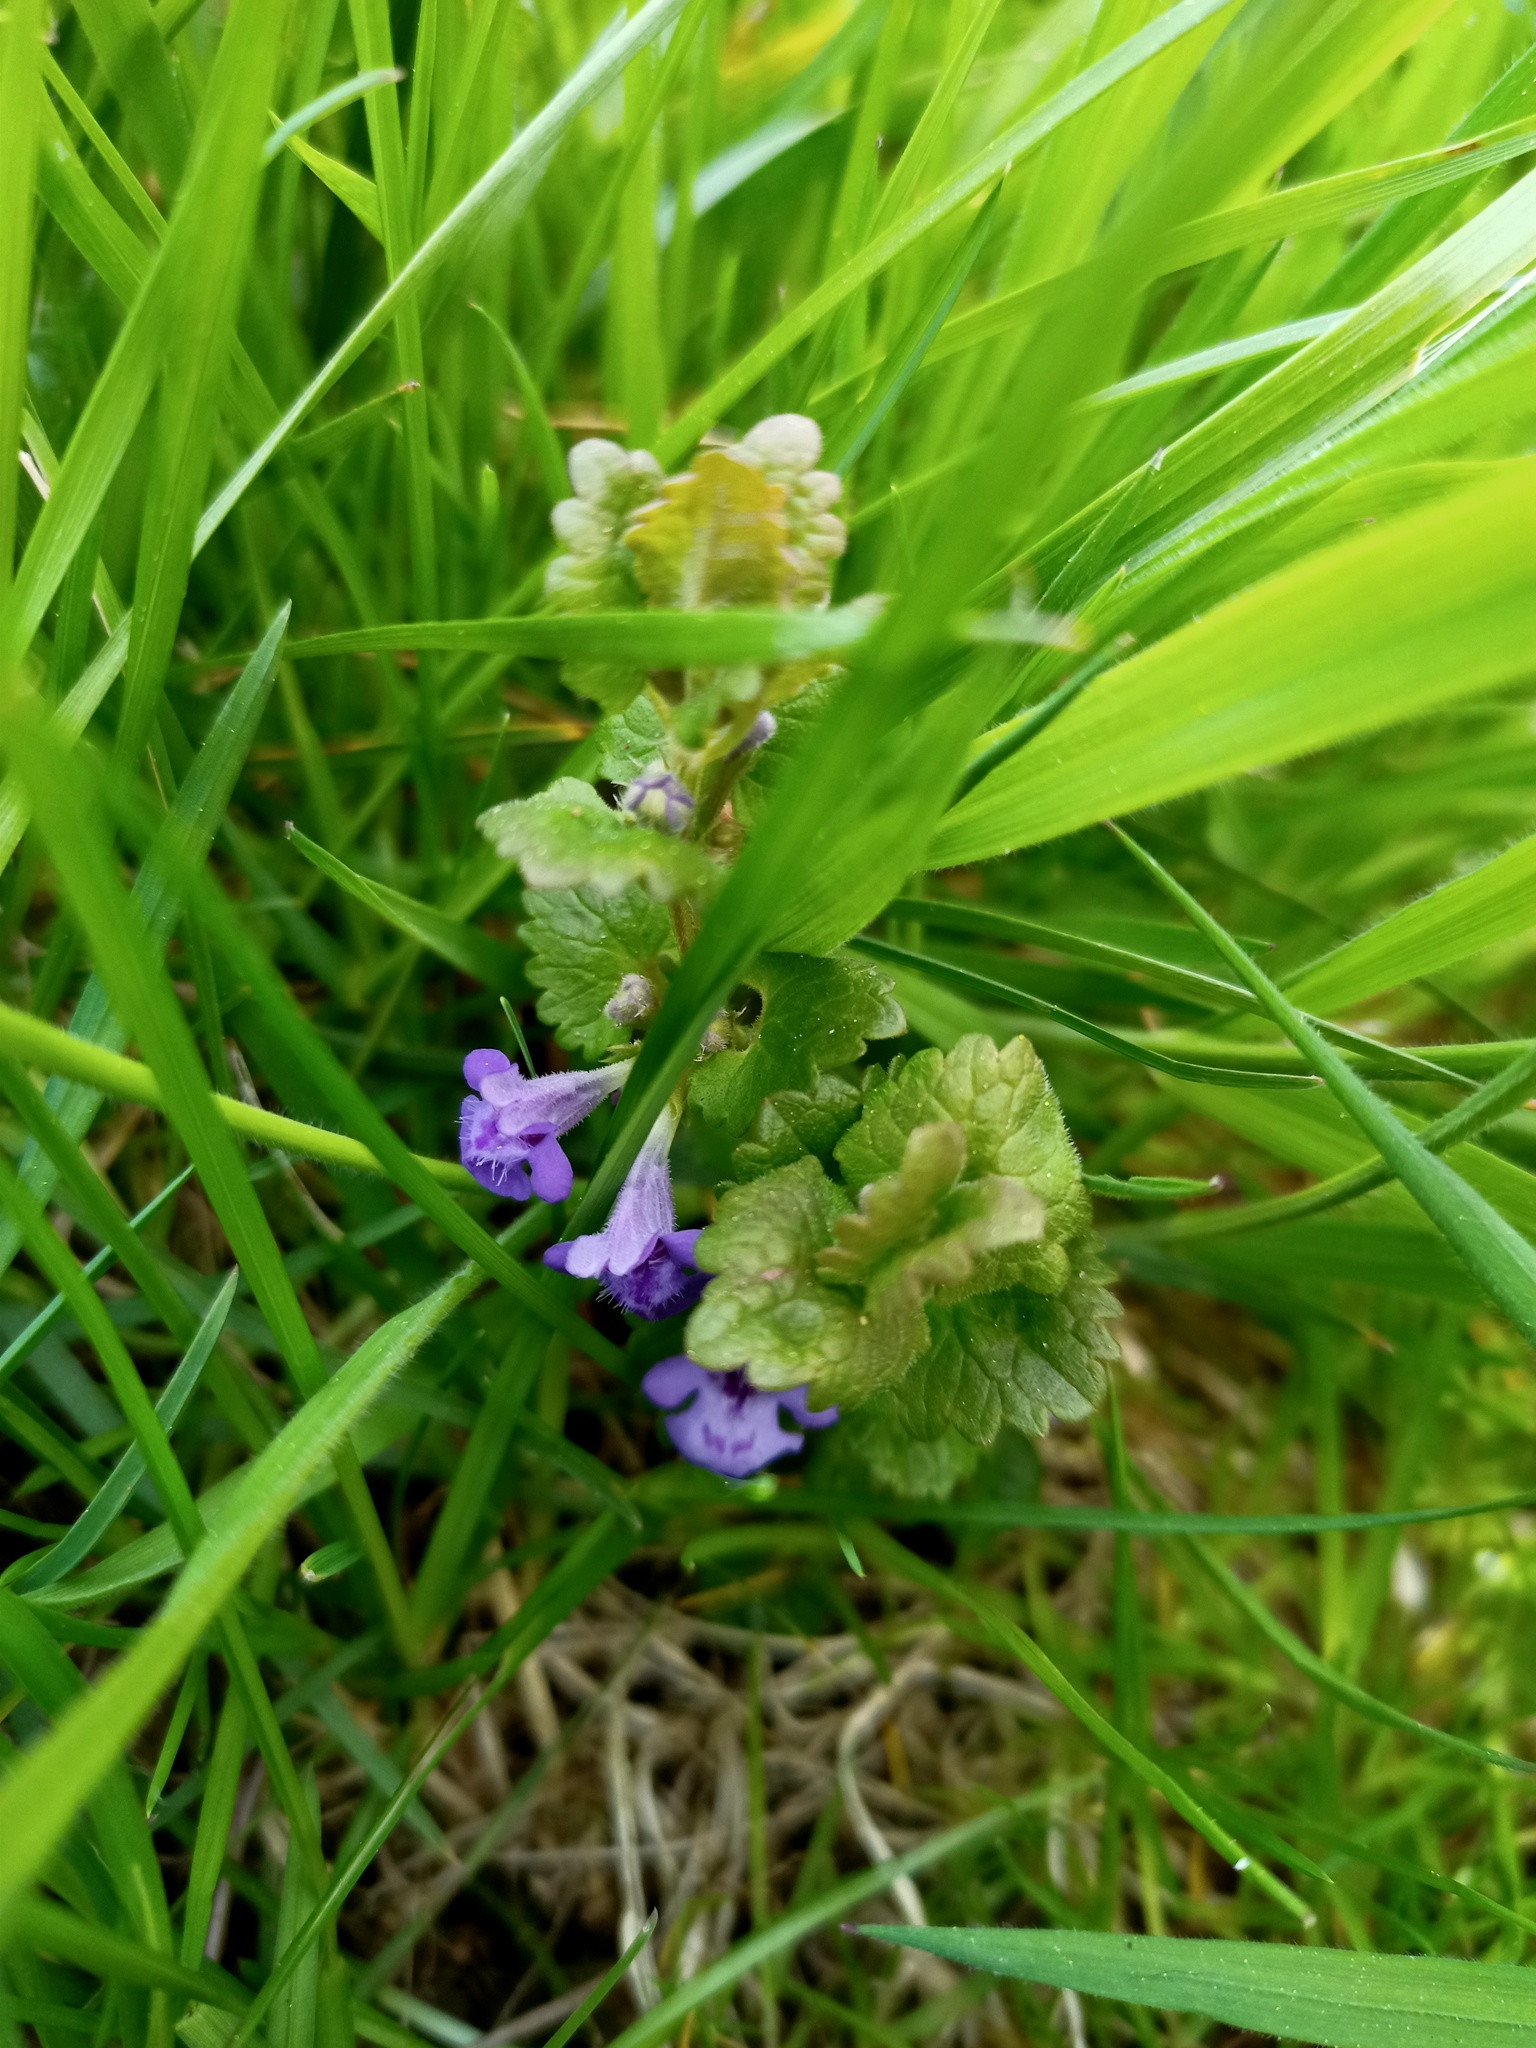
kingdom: Plantae
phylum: Tracheophyta
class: Magnoliopsida
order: Lamiales
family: Lamiaceae
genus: Glechoma
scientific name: Glechoma hederacea
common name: Ground ivy
